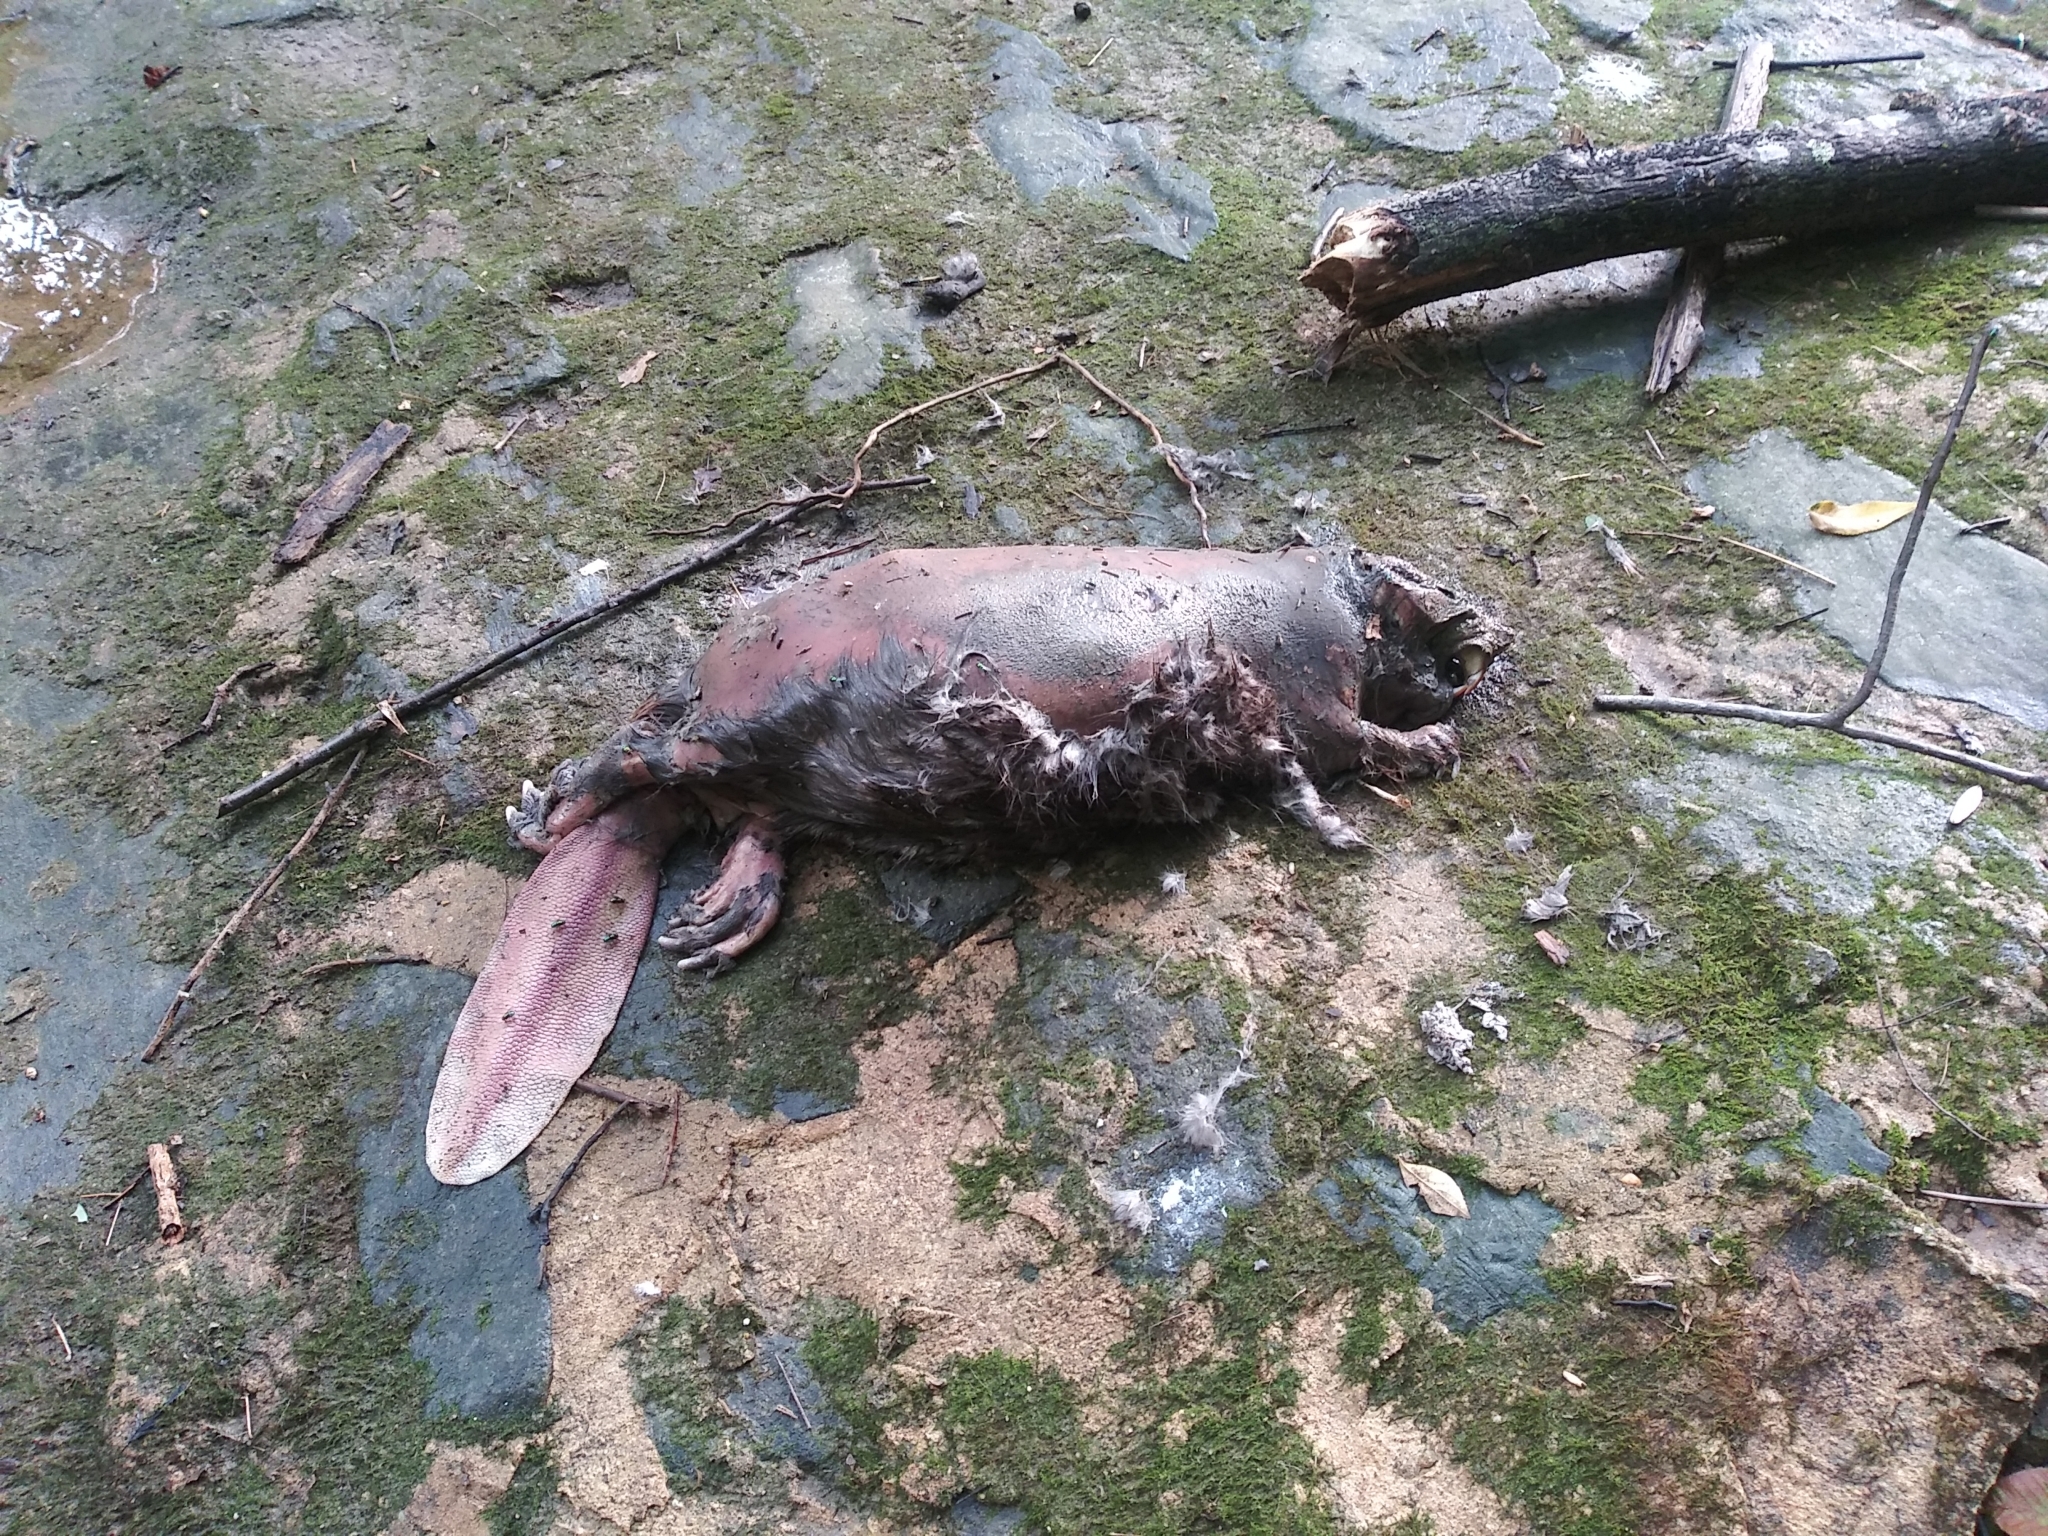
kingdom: Animalia
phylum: Chordata
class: Mammalia
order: Rodentia
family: Castoridae
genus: Castor
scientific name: Castor canadensis
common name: American beaver
